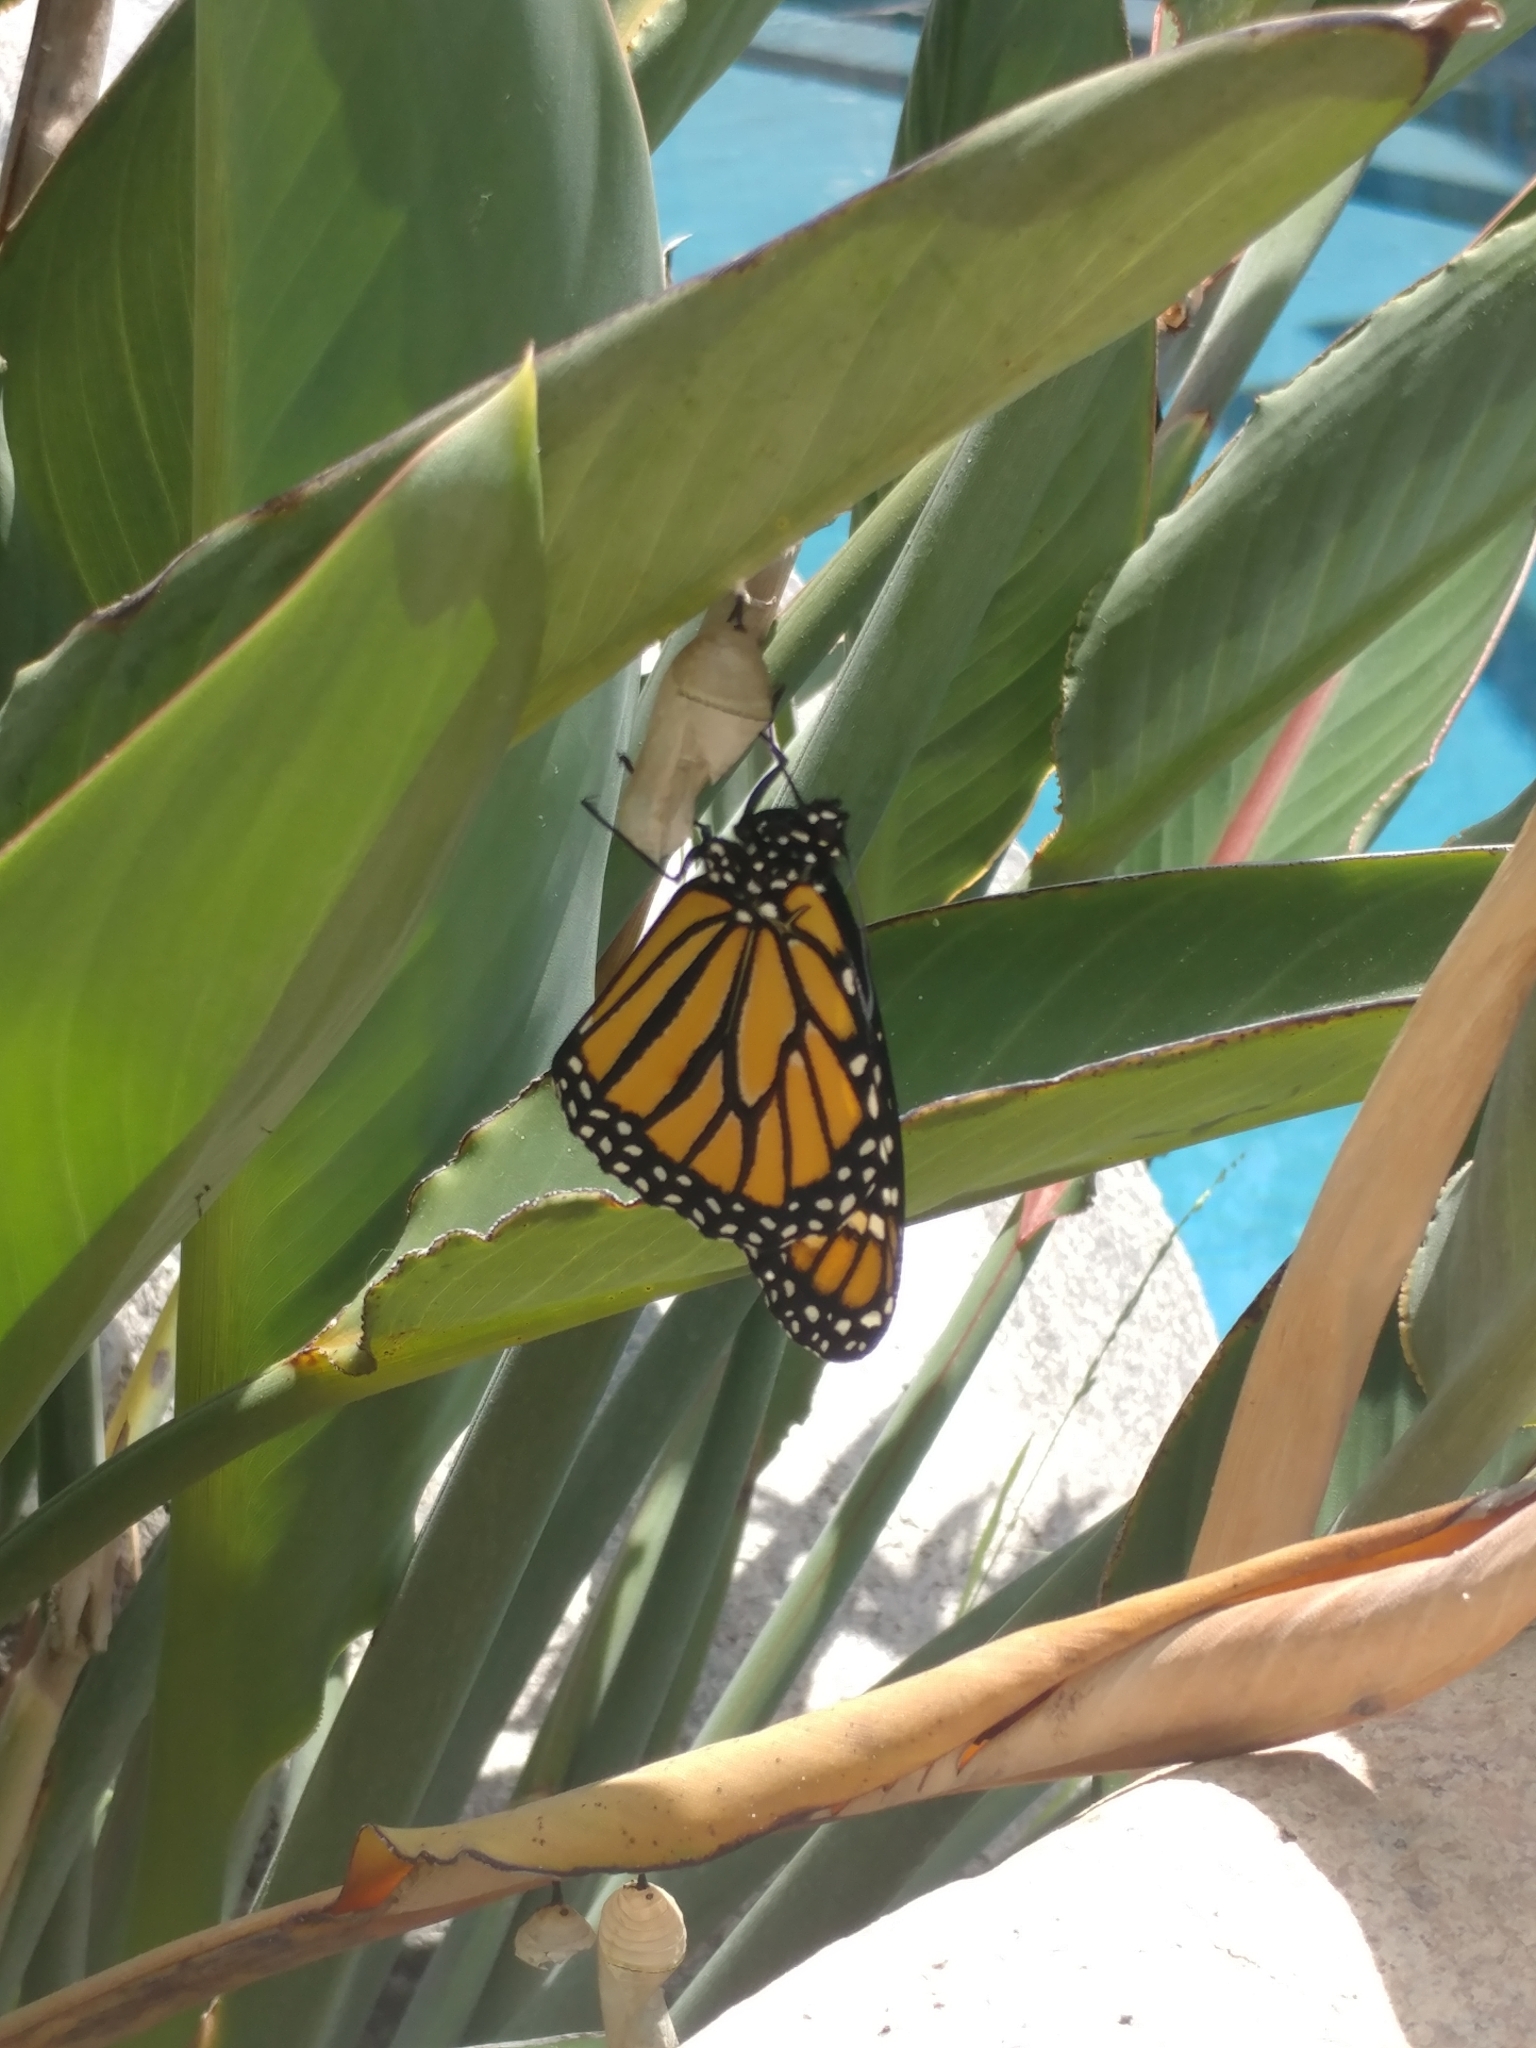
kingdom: Animalia
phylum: Arthropoda
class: Insecta
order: Lepidoptera
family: Nymphalidae
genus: Danaus
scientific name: Danaus plexippus
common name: Monarch
